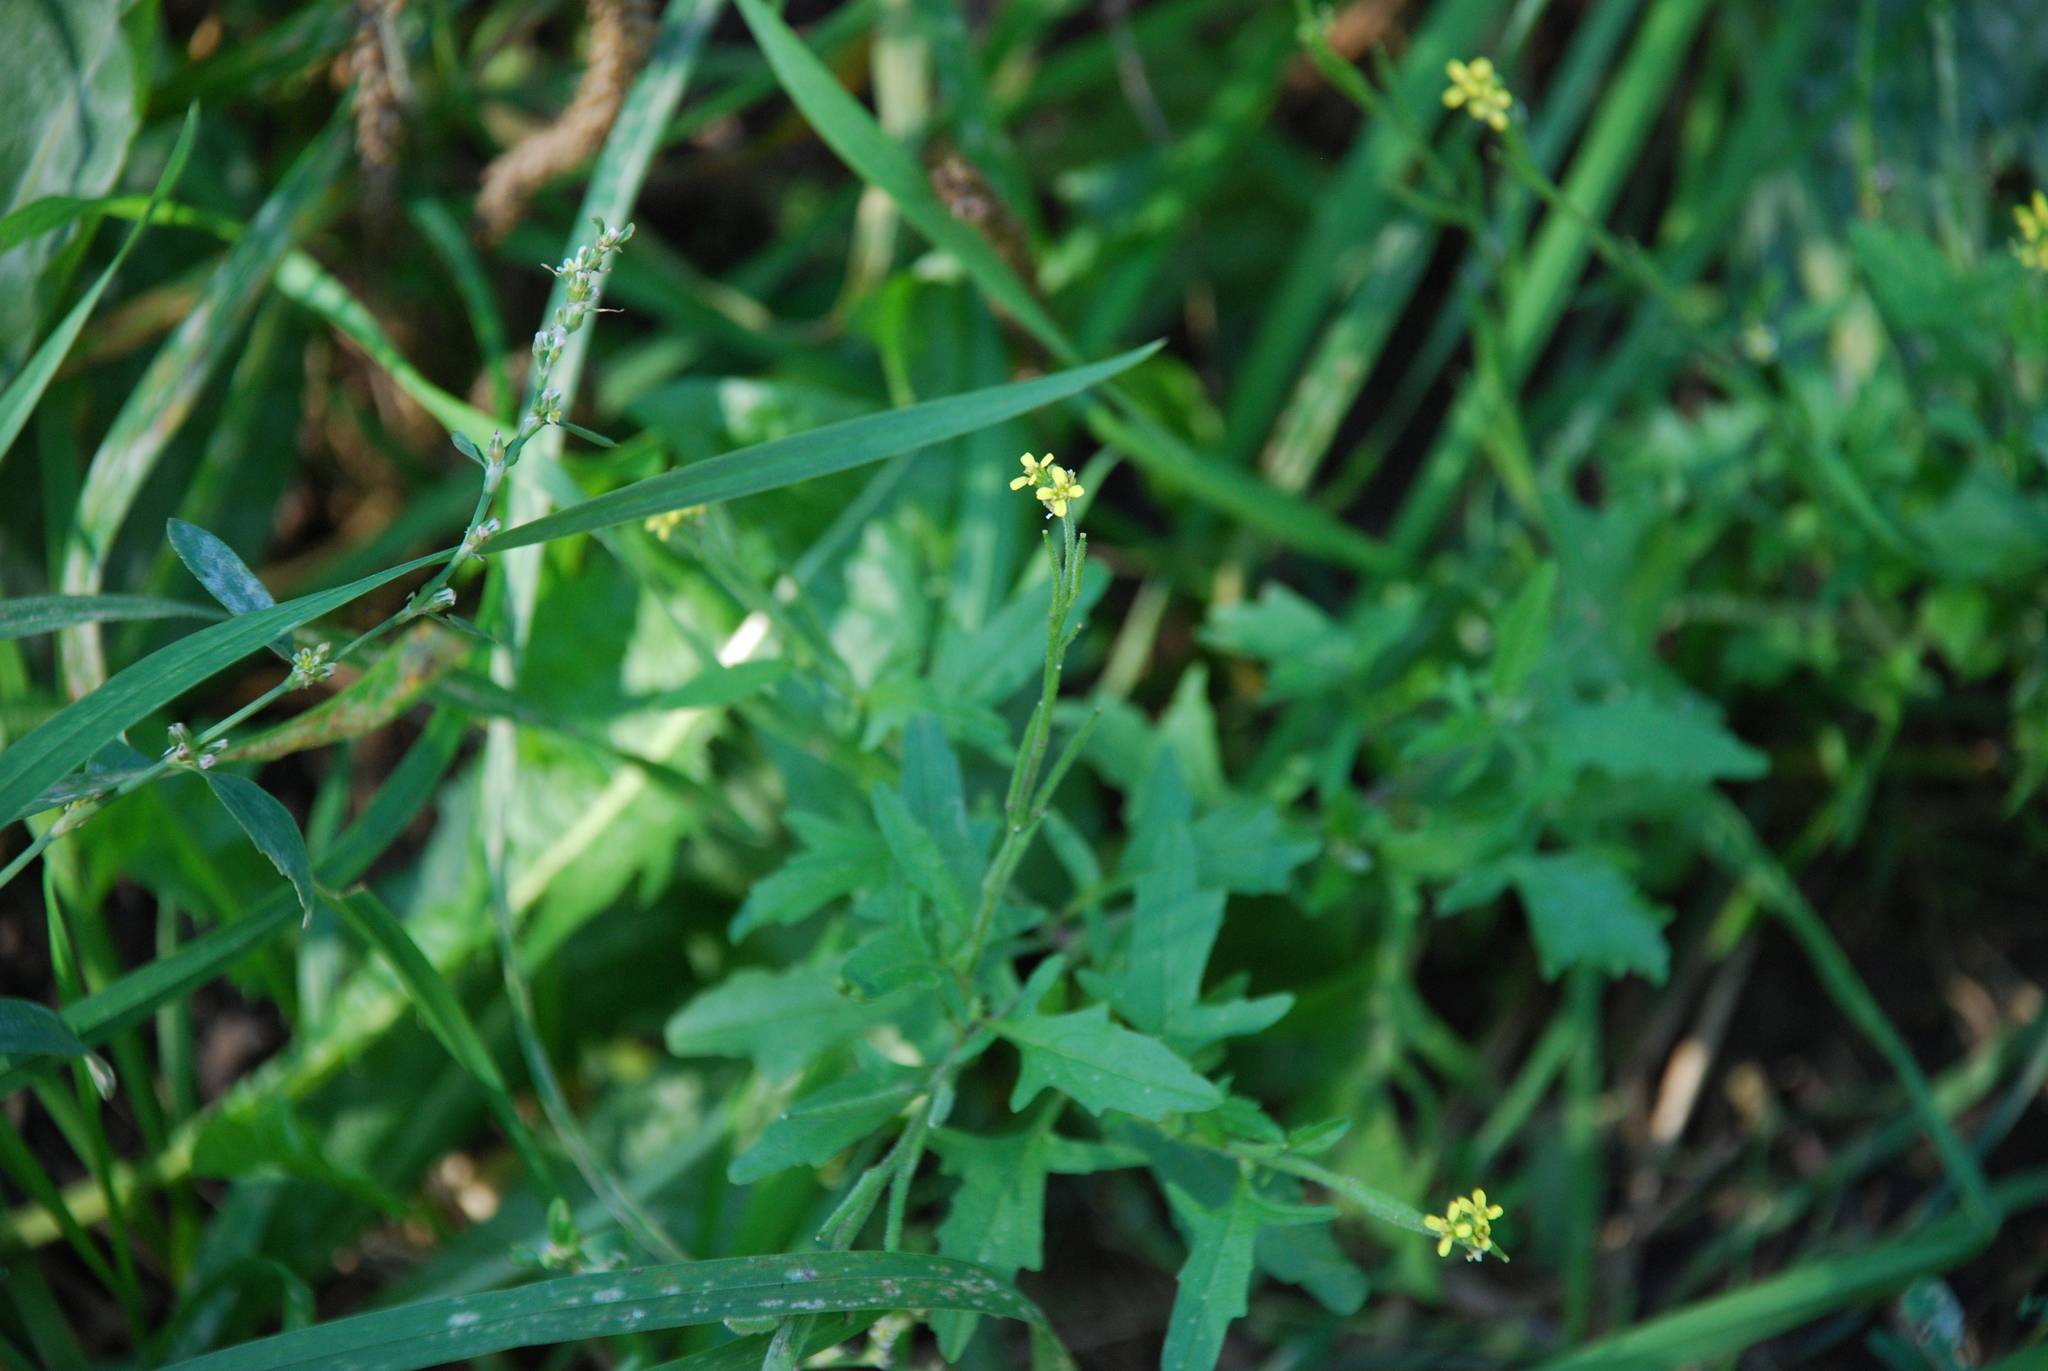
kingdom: Plantae
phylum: Tracheophyta
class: Magnoliopsida
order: Brassicales
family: Brassicaceae
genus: Sisymbrium
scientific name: Sisymbrium officinale
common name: Hedge mustard
